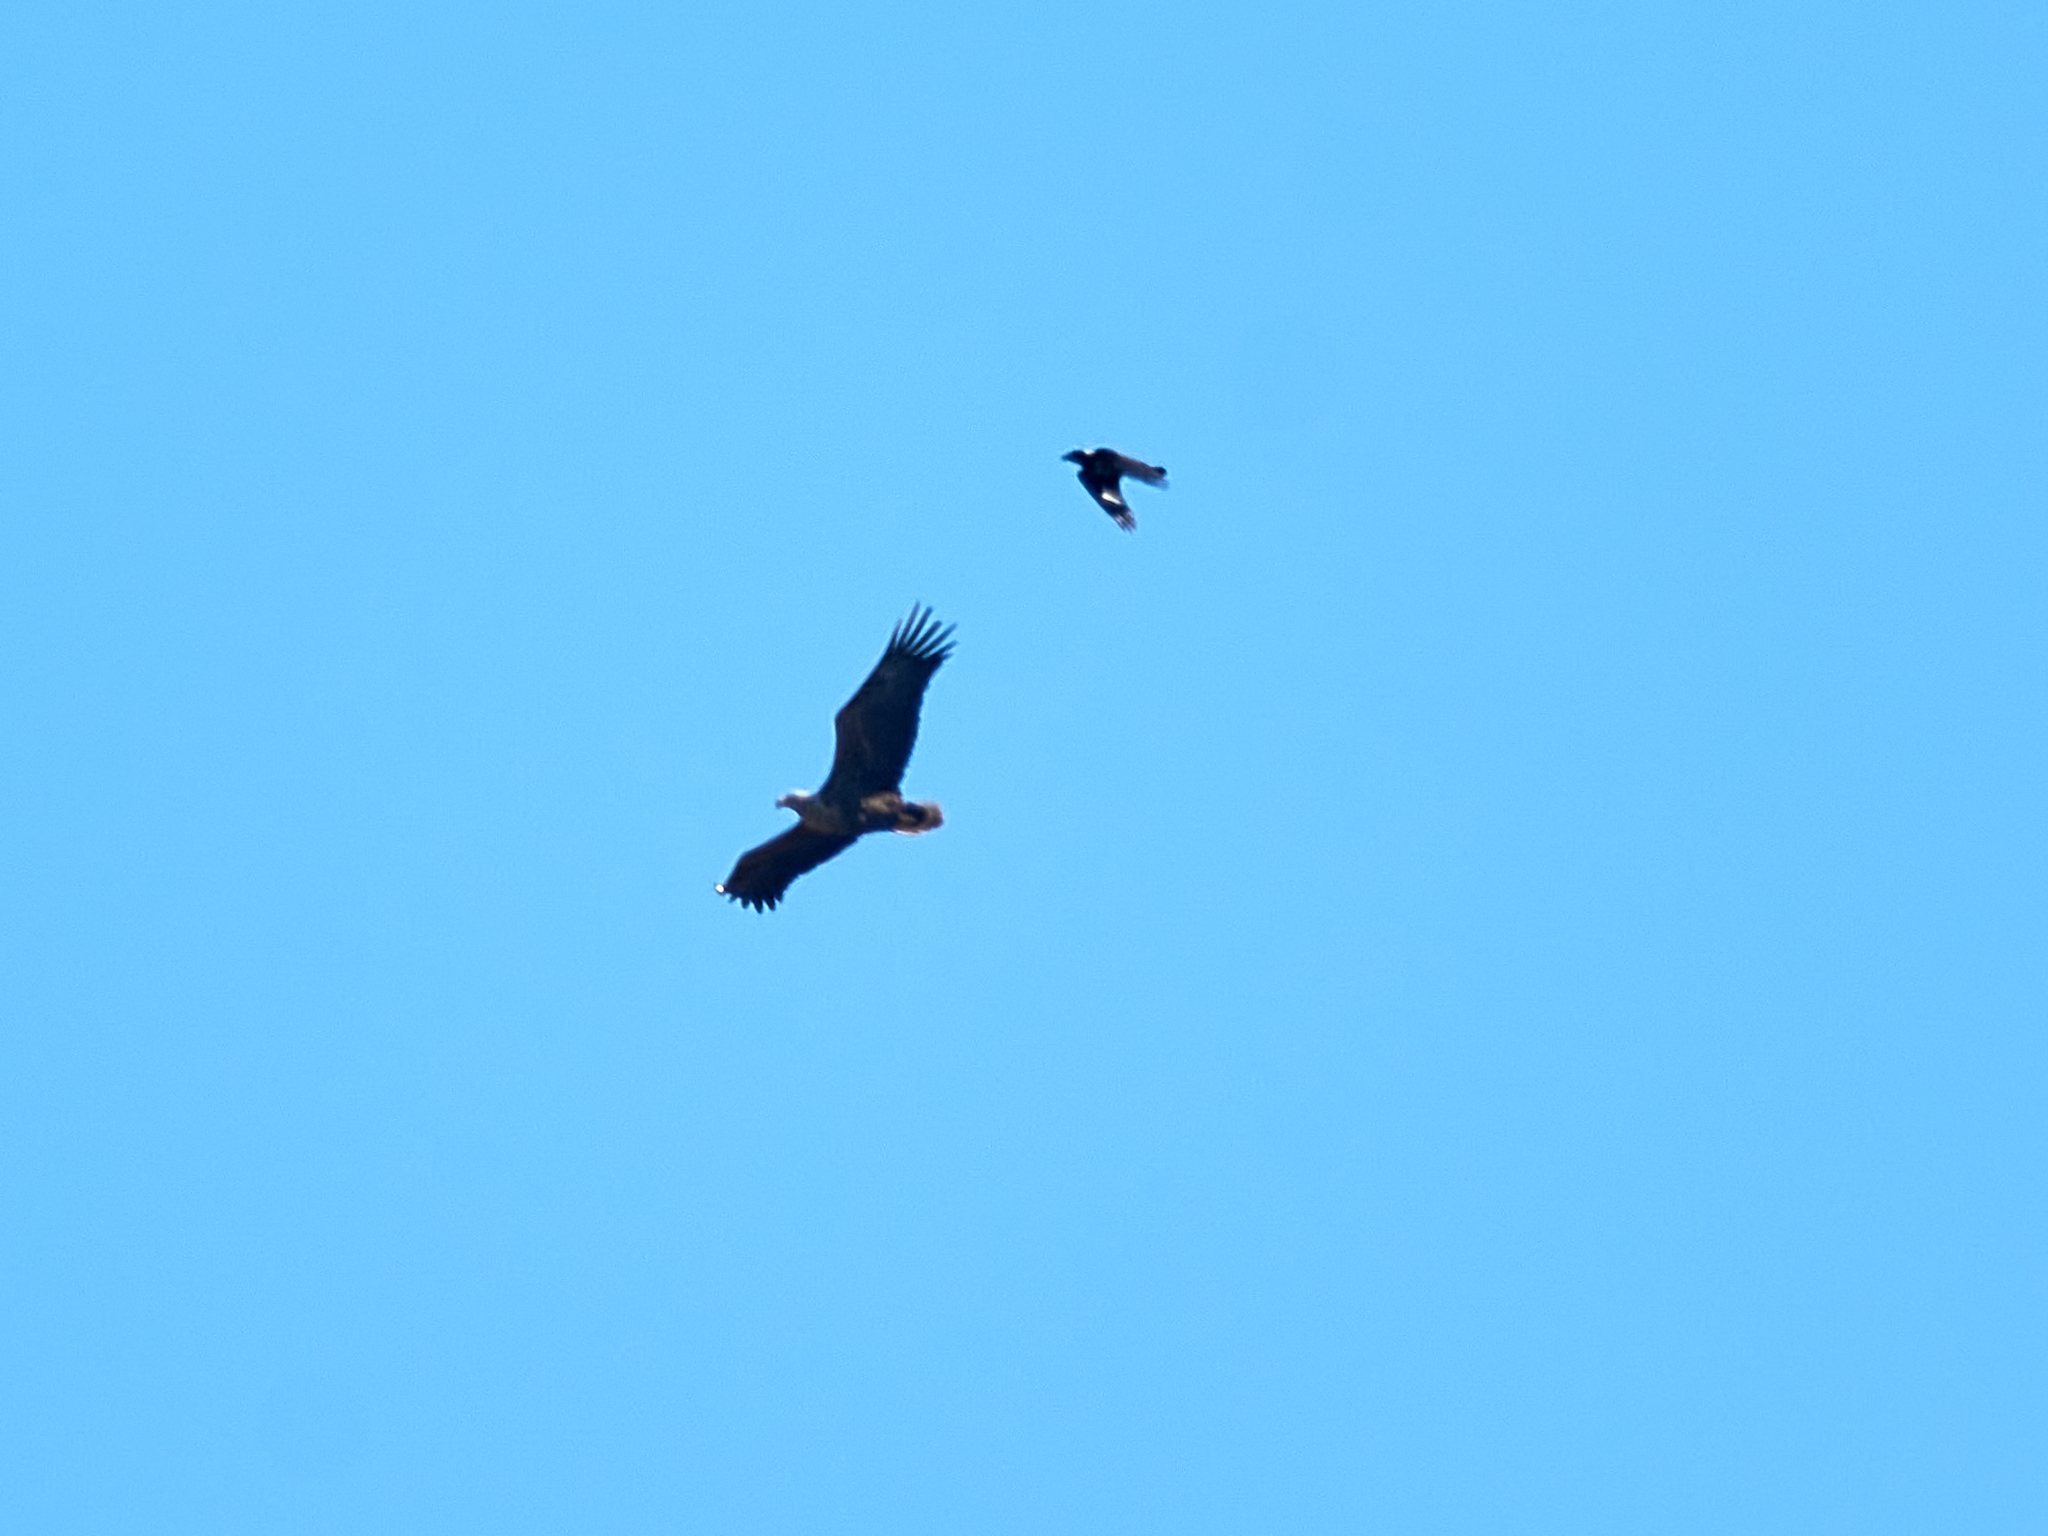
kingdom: Animalia
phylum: Chordata
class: Aves
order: Accipitriformes
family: Accipitridae
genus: Haliaeetus
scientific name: Haliaeetus albicilla
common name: White-tailed eagle
